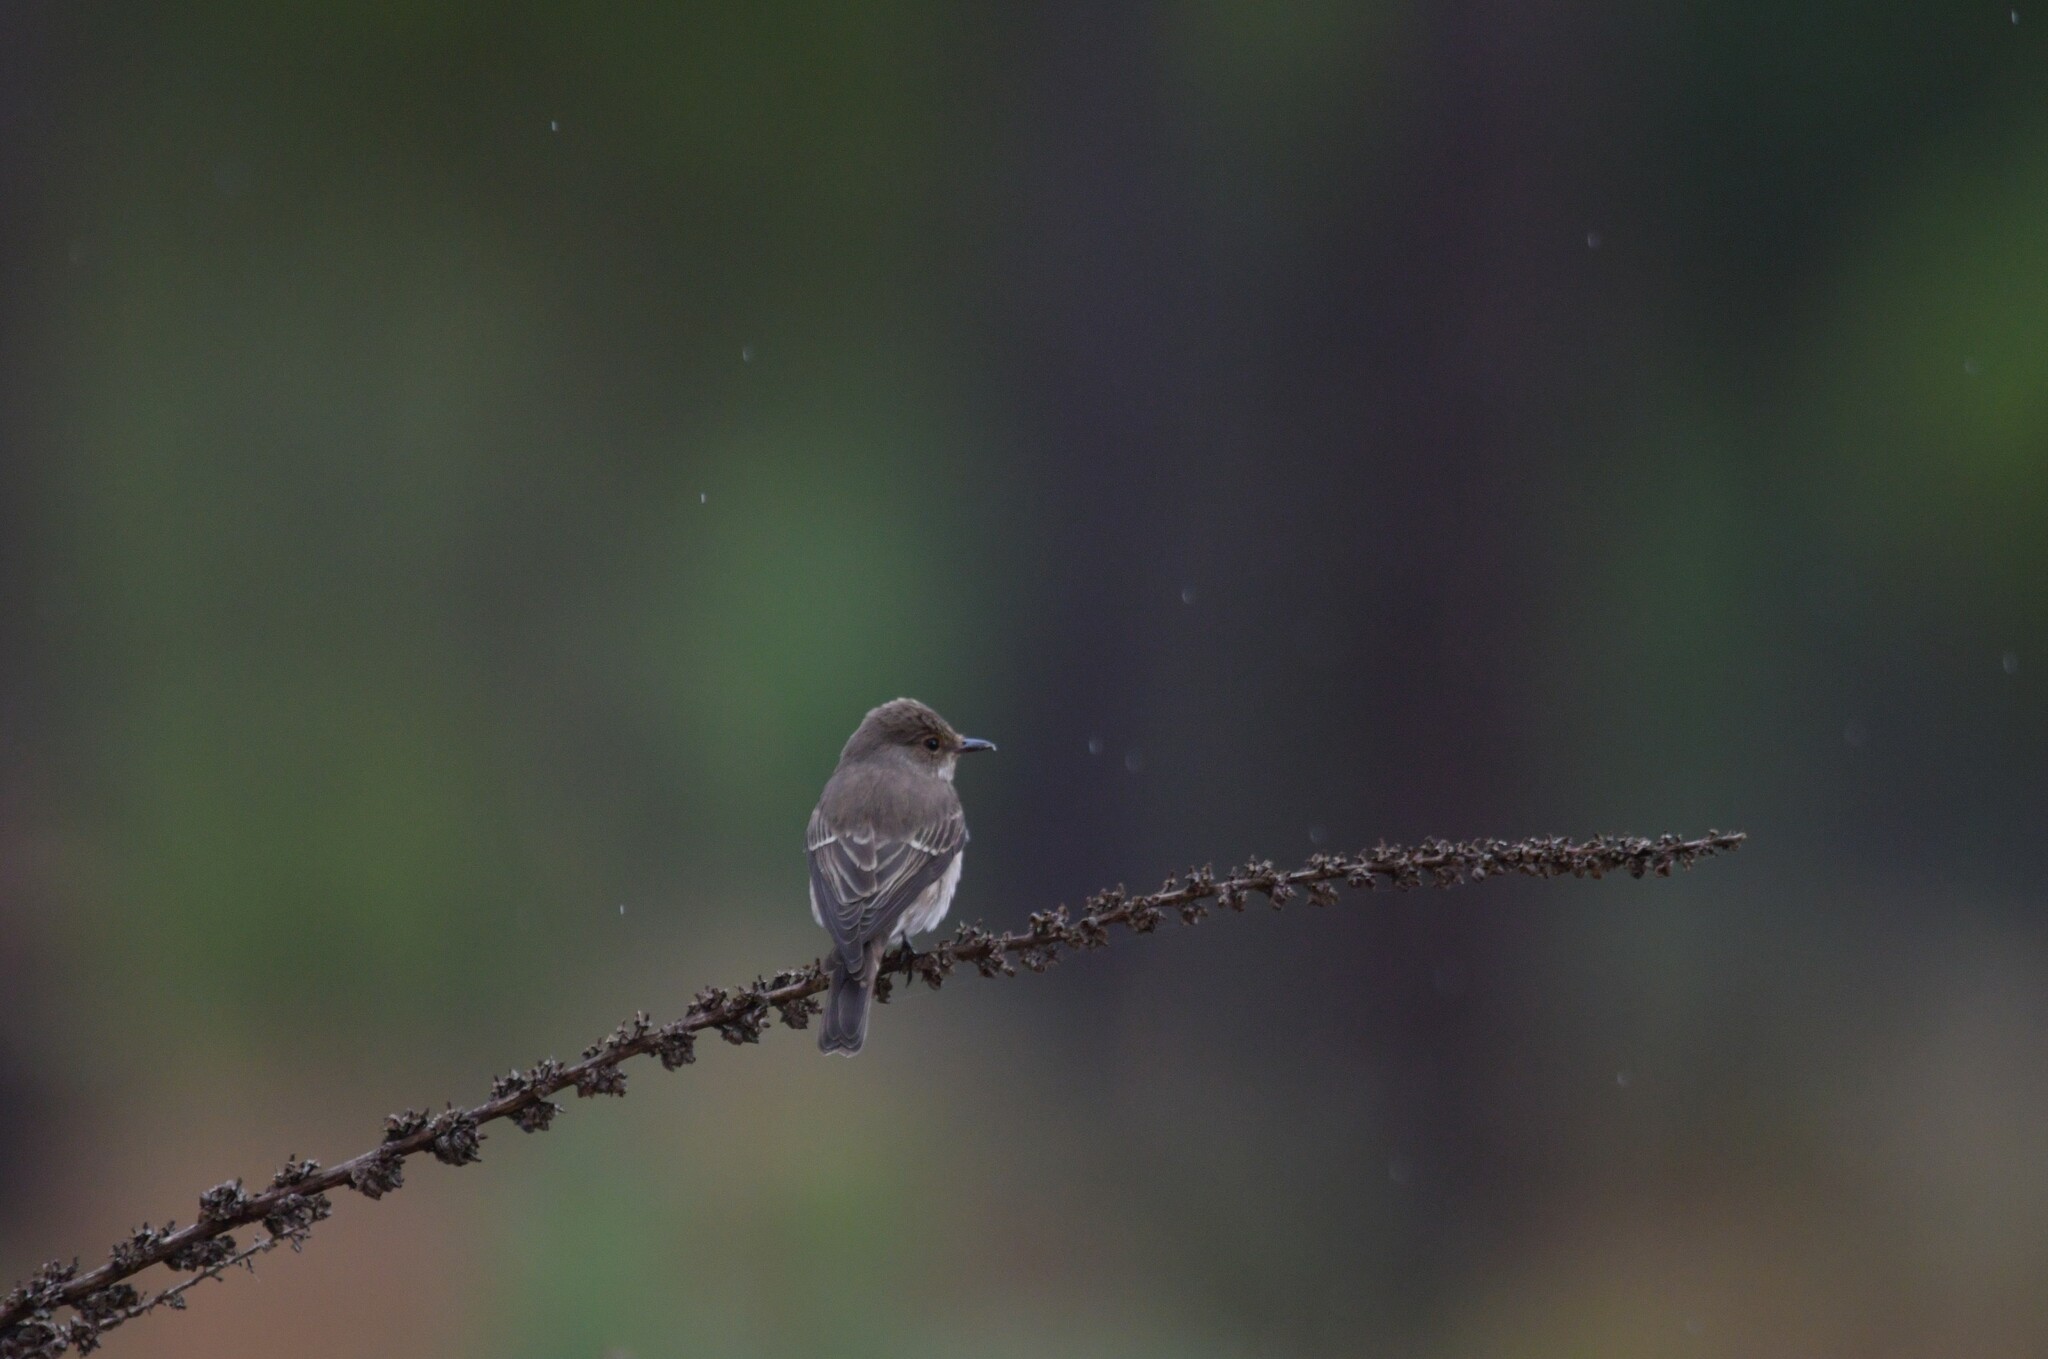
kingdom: Animalia
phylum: Chordata
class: Aves
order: Passeriformes
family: Muscicapidae
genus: Muscicapa
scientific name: Muscicapa striata
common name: Spotted flycatcher
